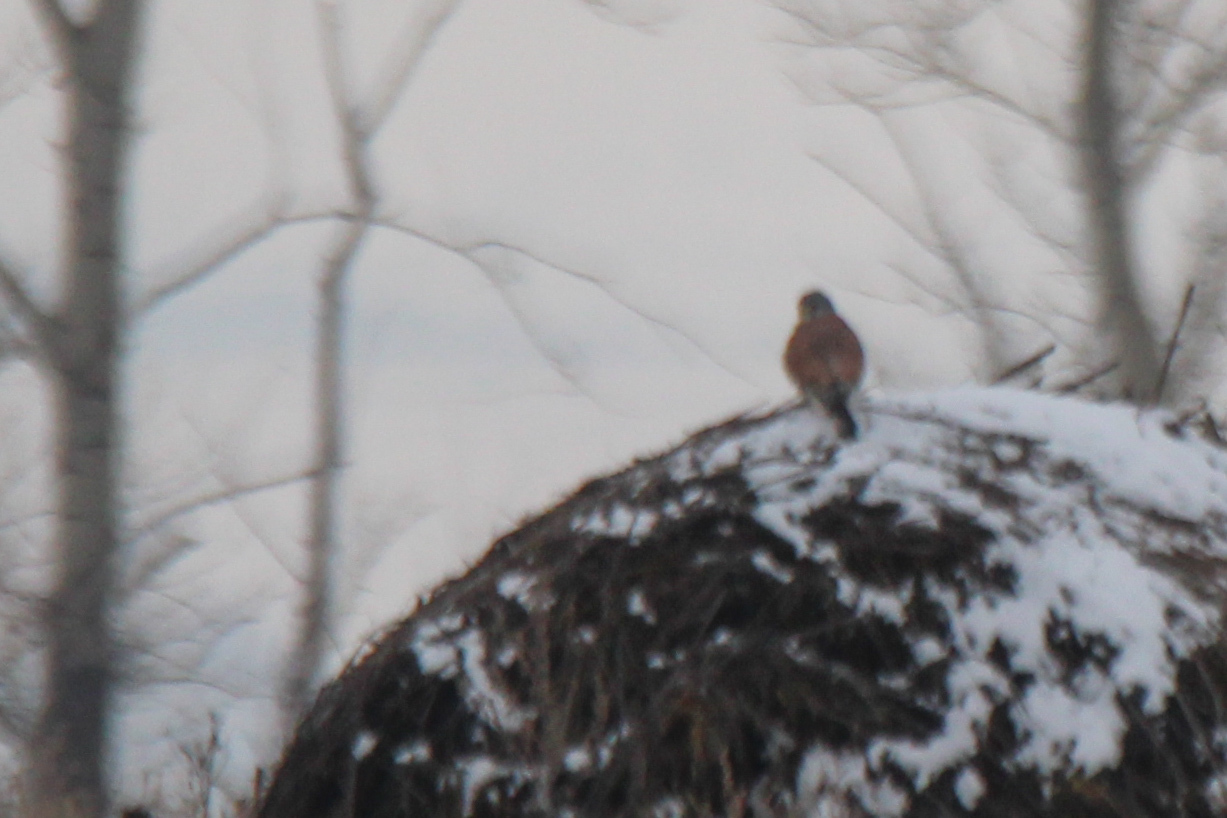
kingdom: Animalia
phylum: Chordata
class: Aves
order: Falconiformes
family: Falconidae
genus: Falco
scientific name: Falco tinnunculus
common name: Common kestrel
